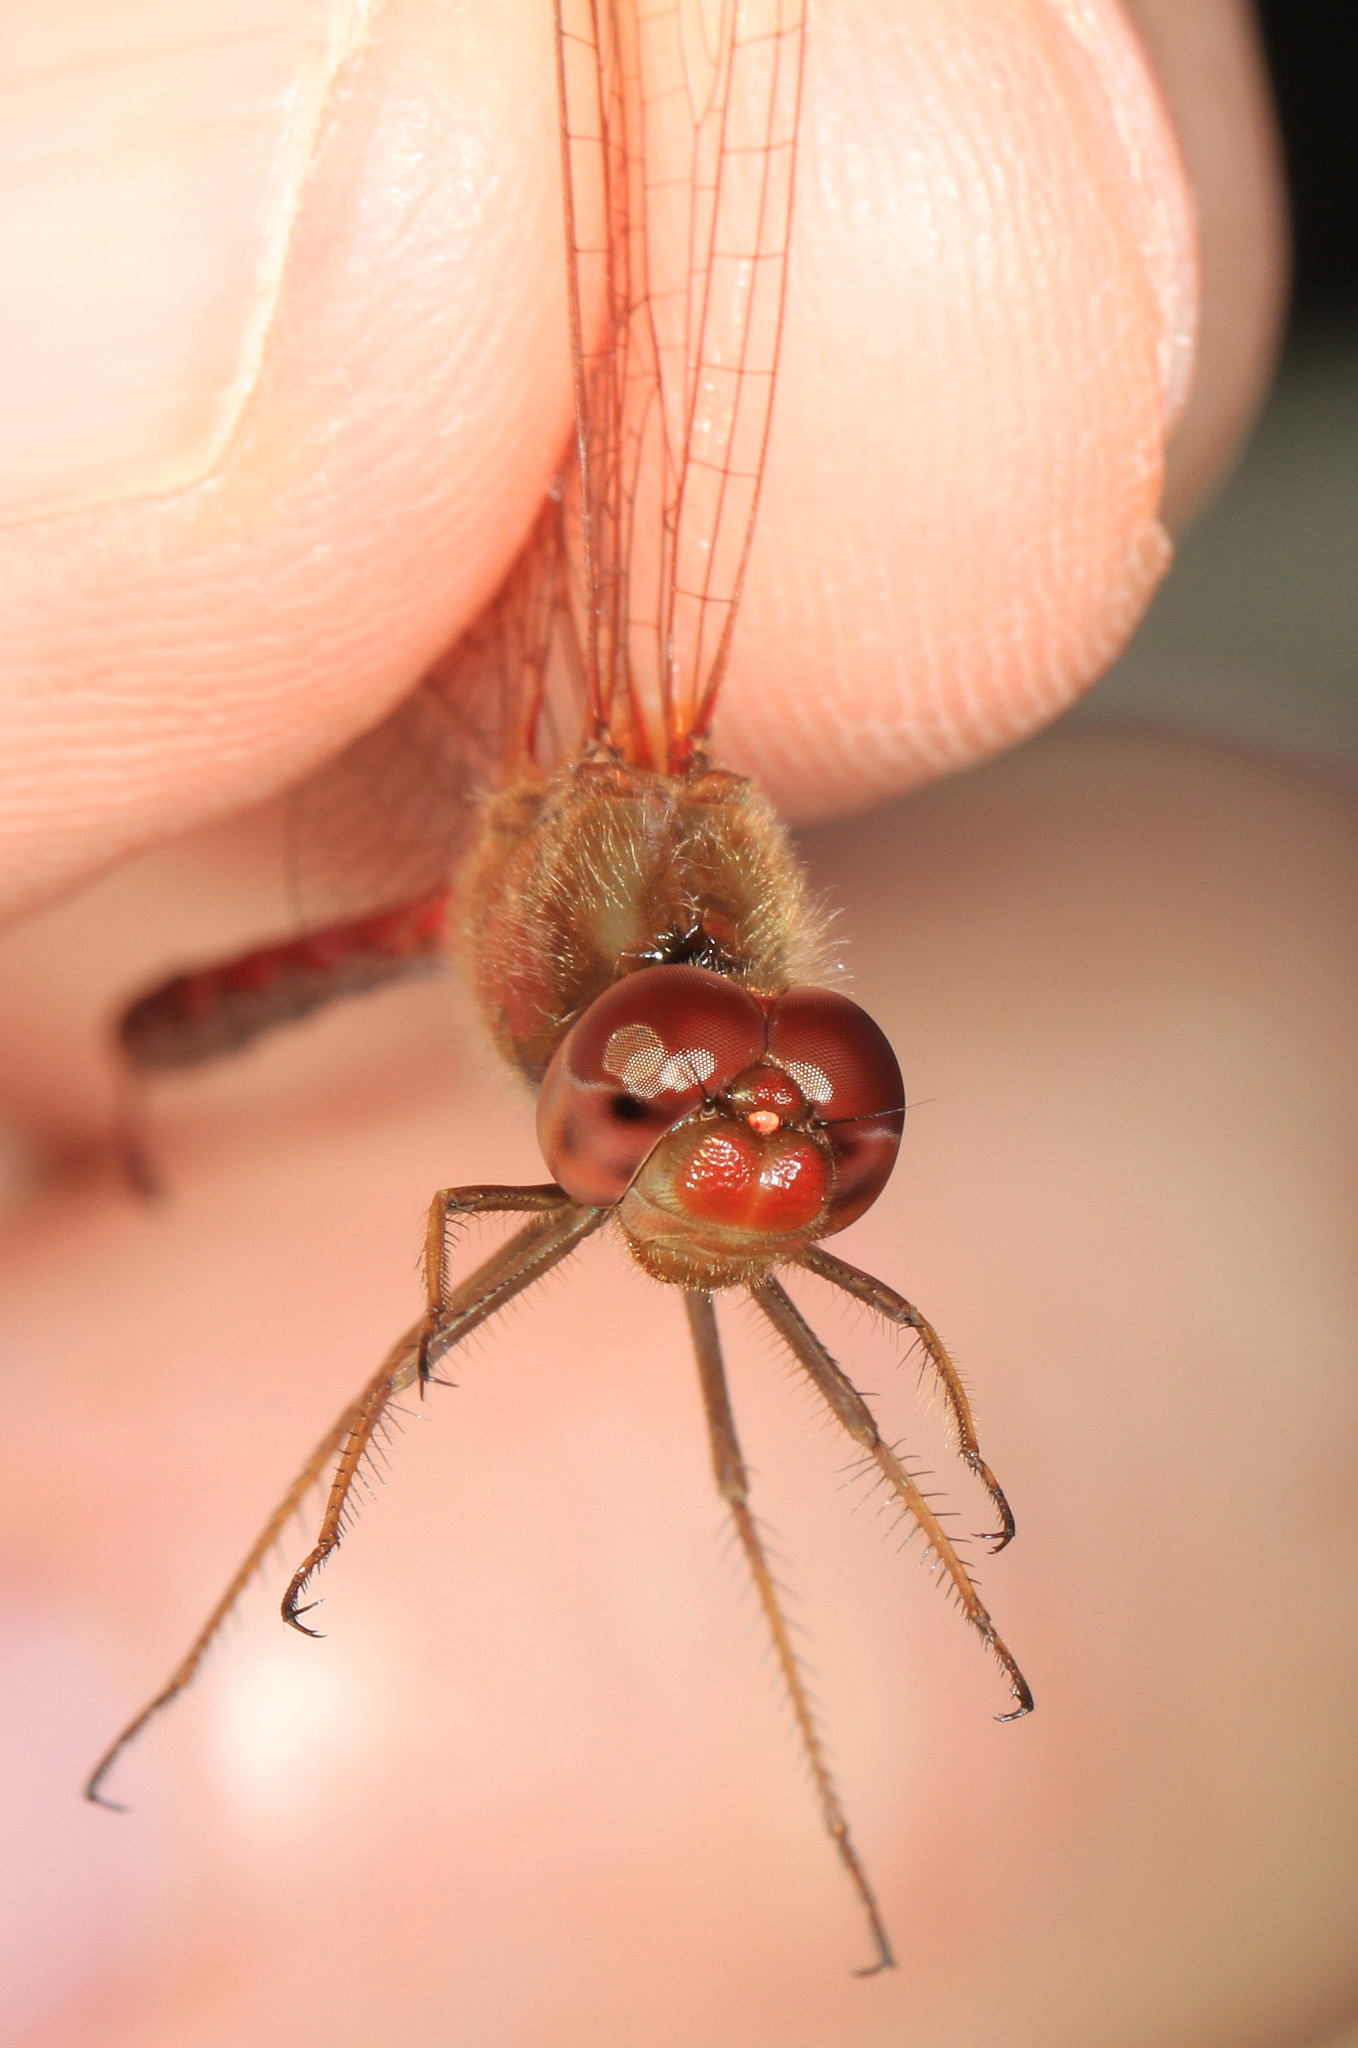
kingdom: Animalia
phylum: Arthropoda
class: Insecta
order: Odonata
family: Libellulidae
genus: Sympetrum
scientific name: Sympetrum vicinum
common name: Autumn meadowhawk
